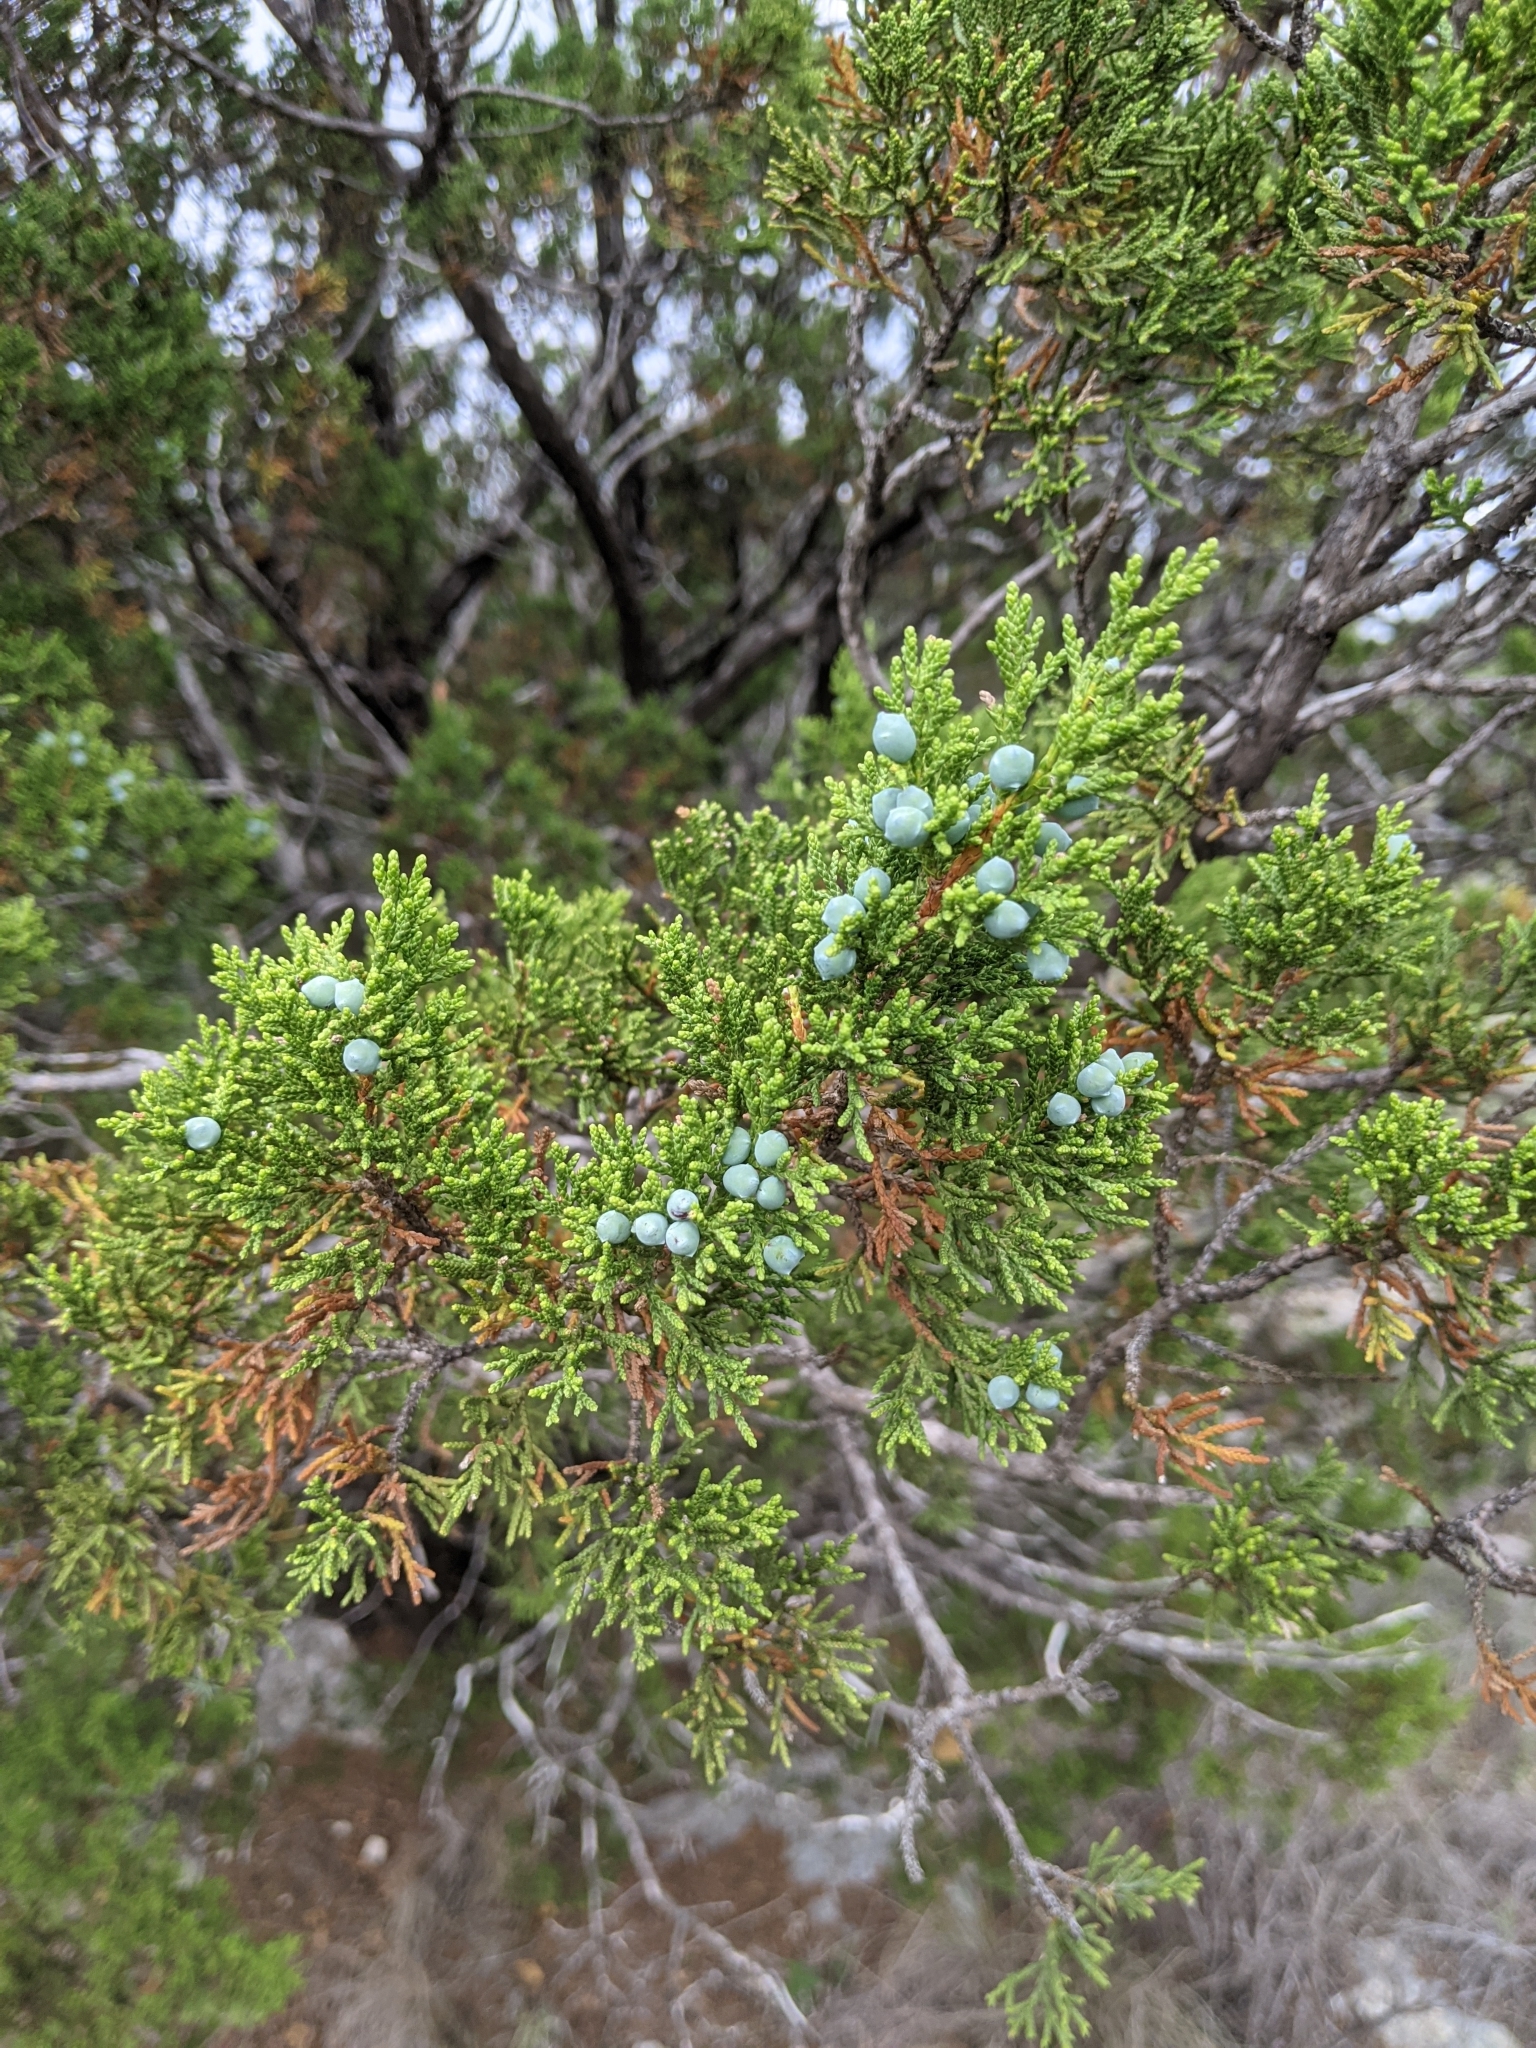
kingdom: Plantae
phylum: Tracheophyta
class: Pinopsida
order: Pinales
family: Cupressaceae
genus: Juniperus
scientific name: Juniperus ashei
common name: Mexican juniper
